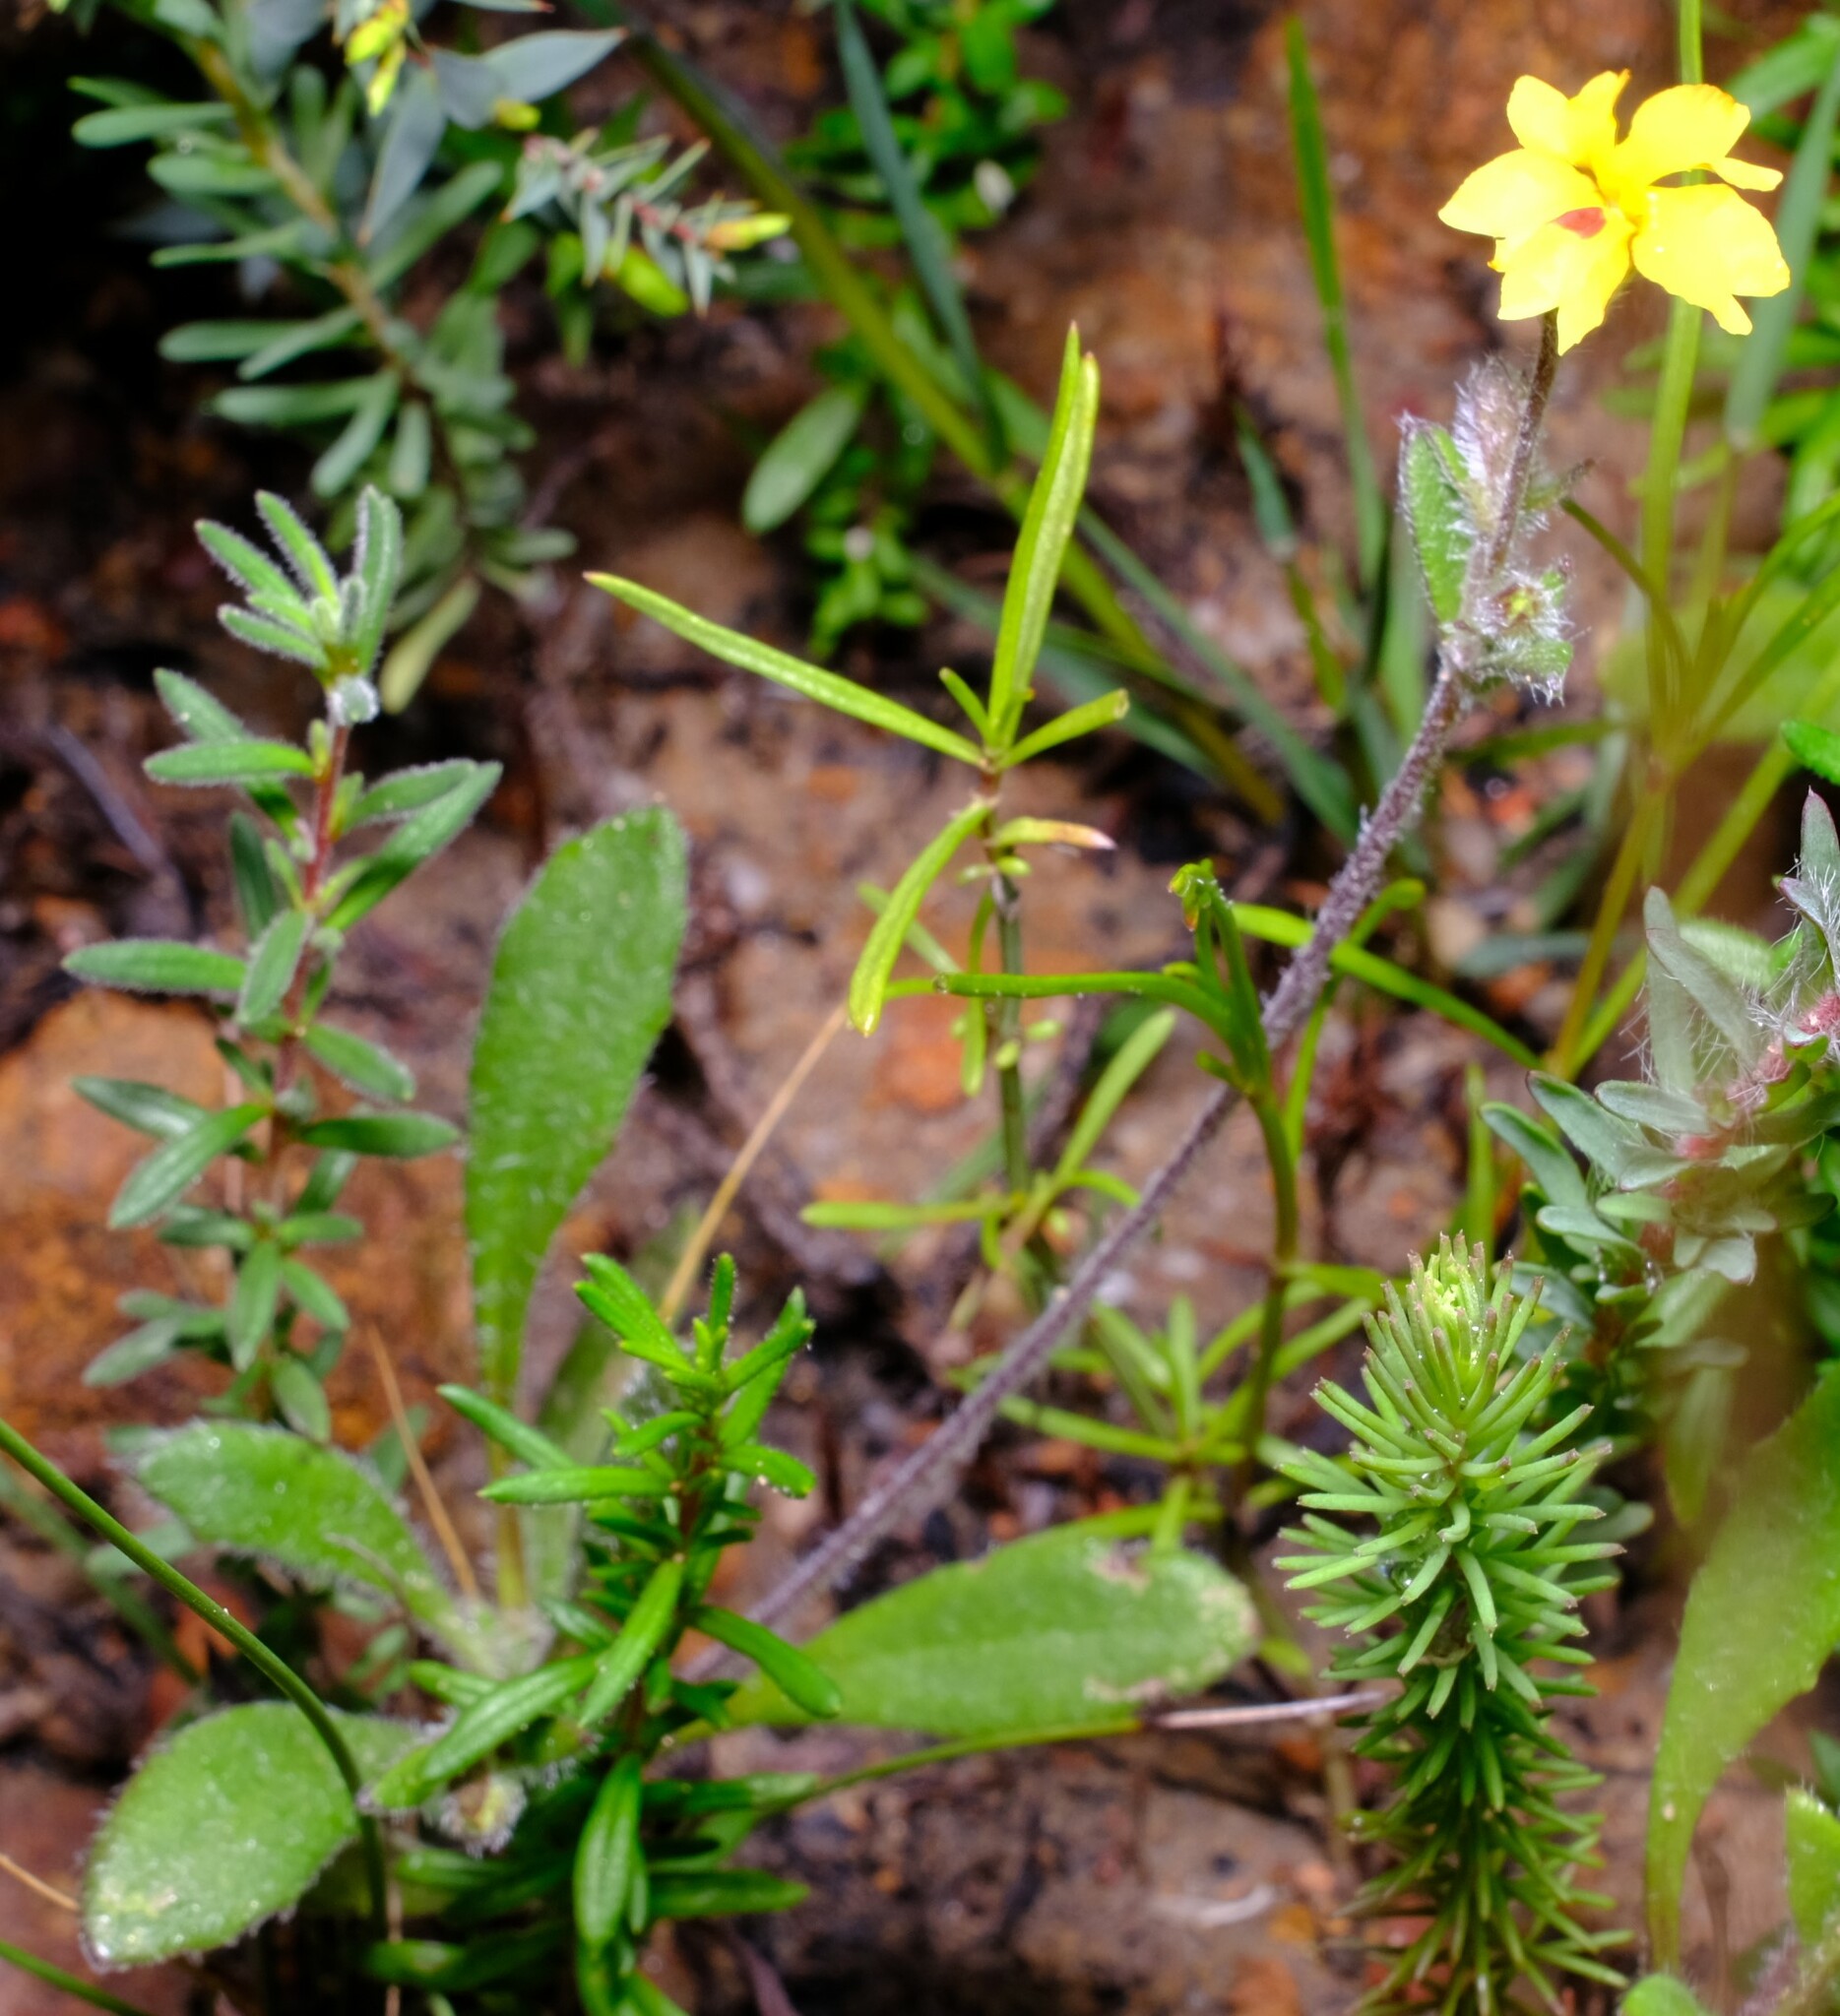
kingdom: Plantae
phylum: Tracheophyta
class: Magnoliopsida
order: Asterales
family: Goodeniaceae
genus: Goodenia
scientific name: Goodenia trinervis
